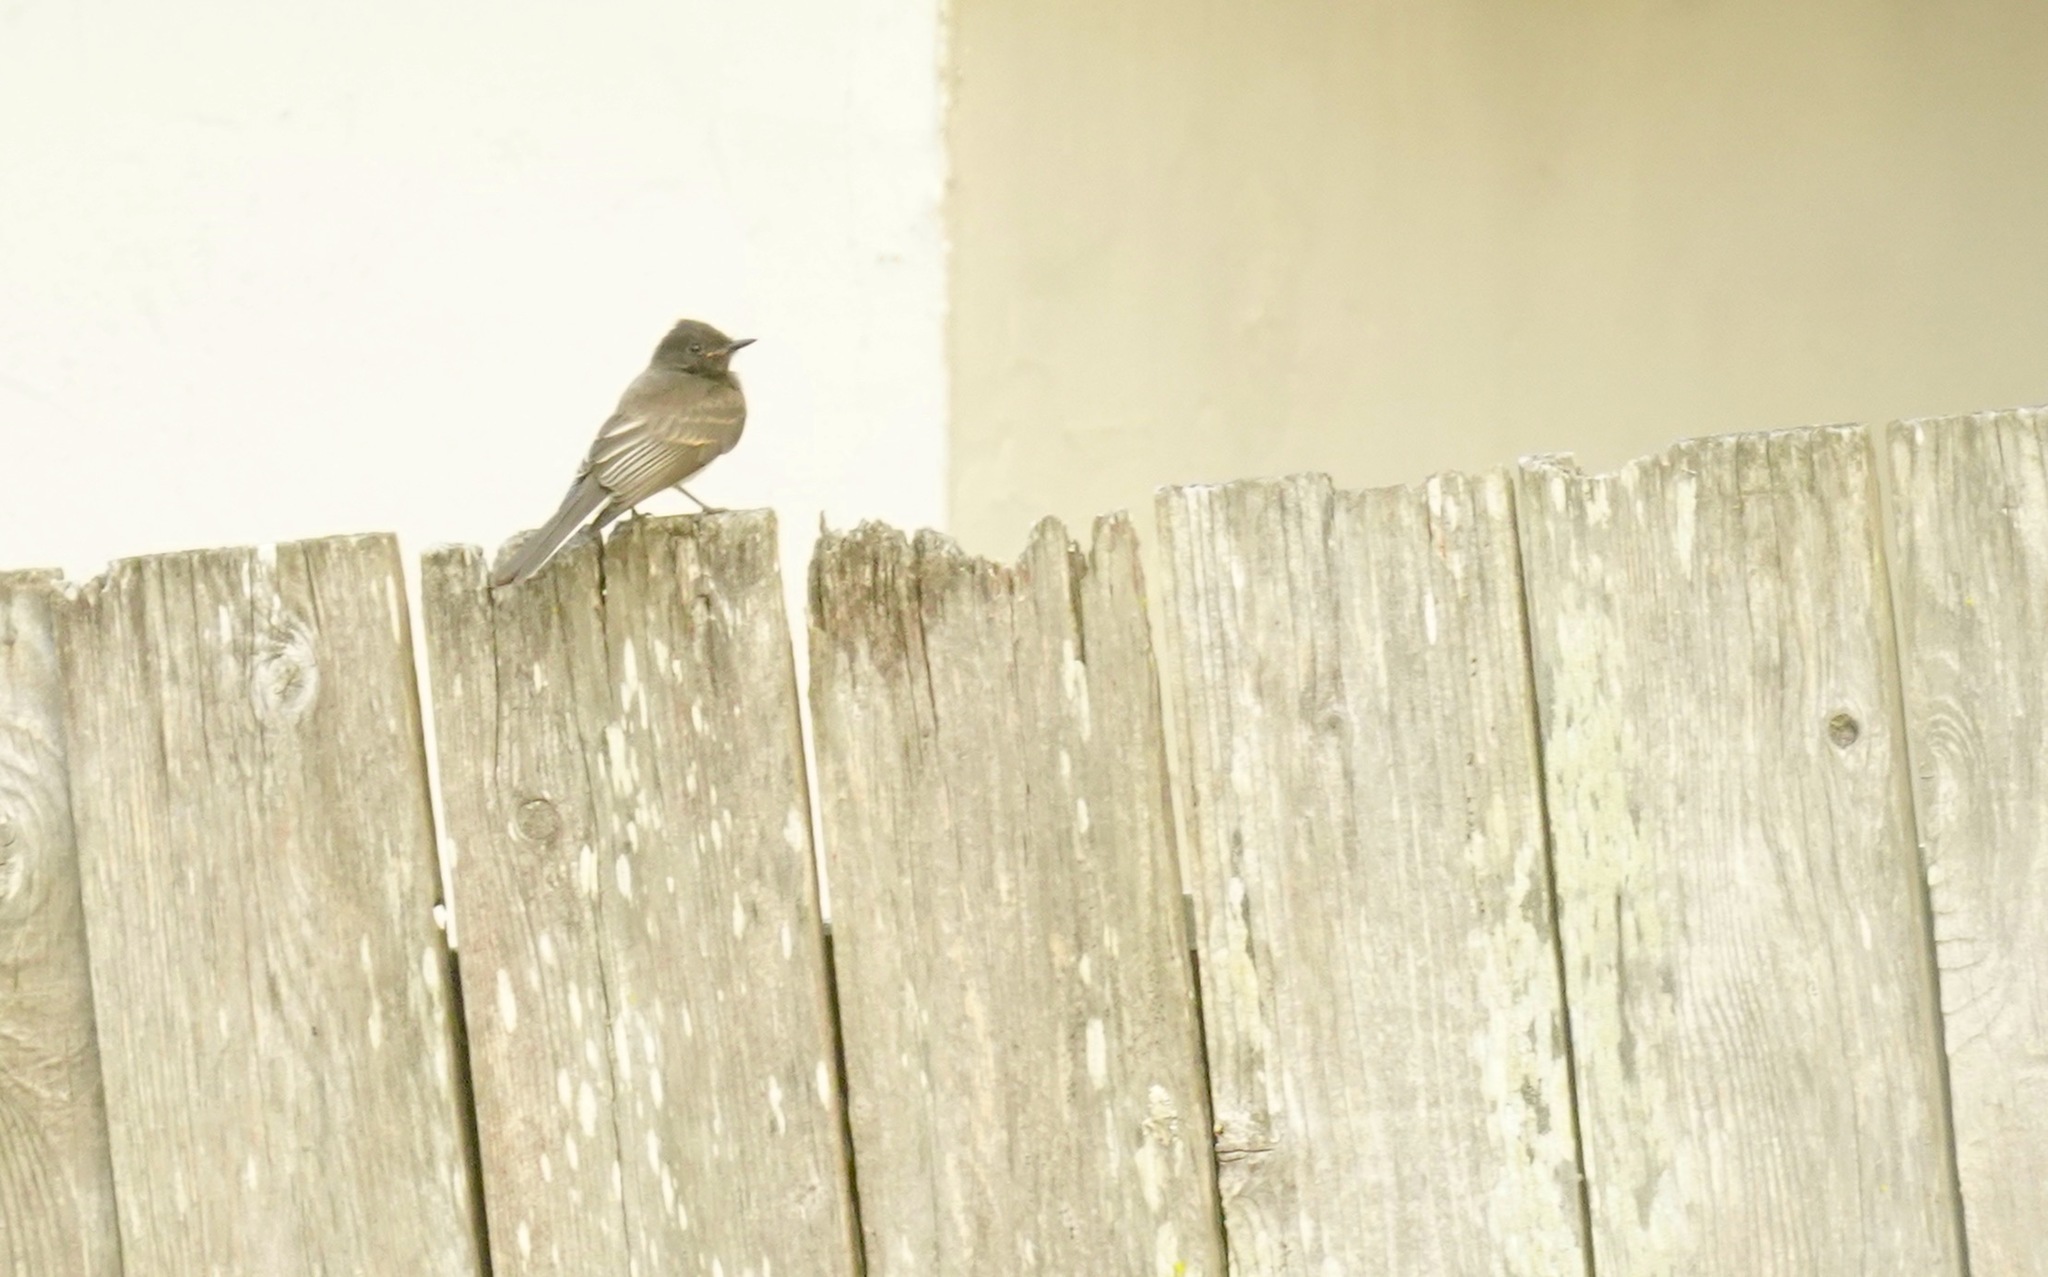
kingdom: Animalia
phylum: Chordata
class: Aves
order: Passeriformes
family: Tyrannidae
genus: Sayornis
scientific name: Sayornis nigricans
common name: Black phoebe
